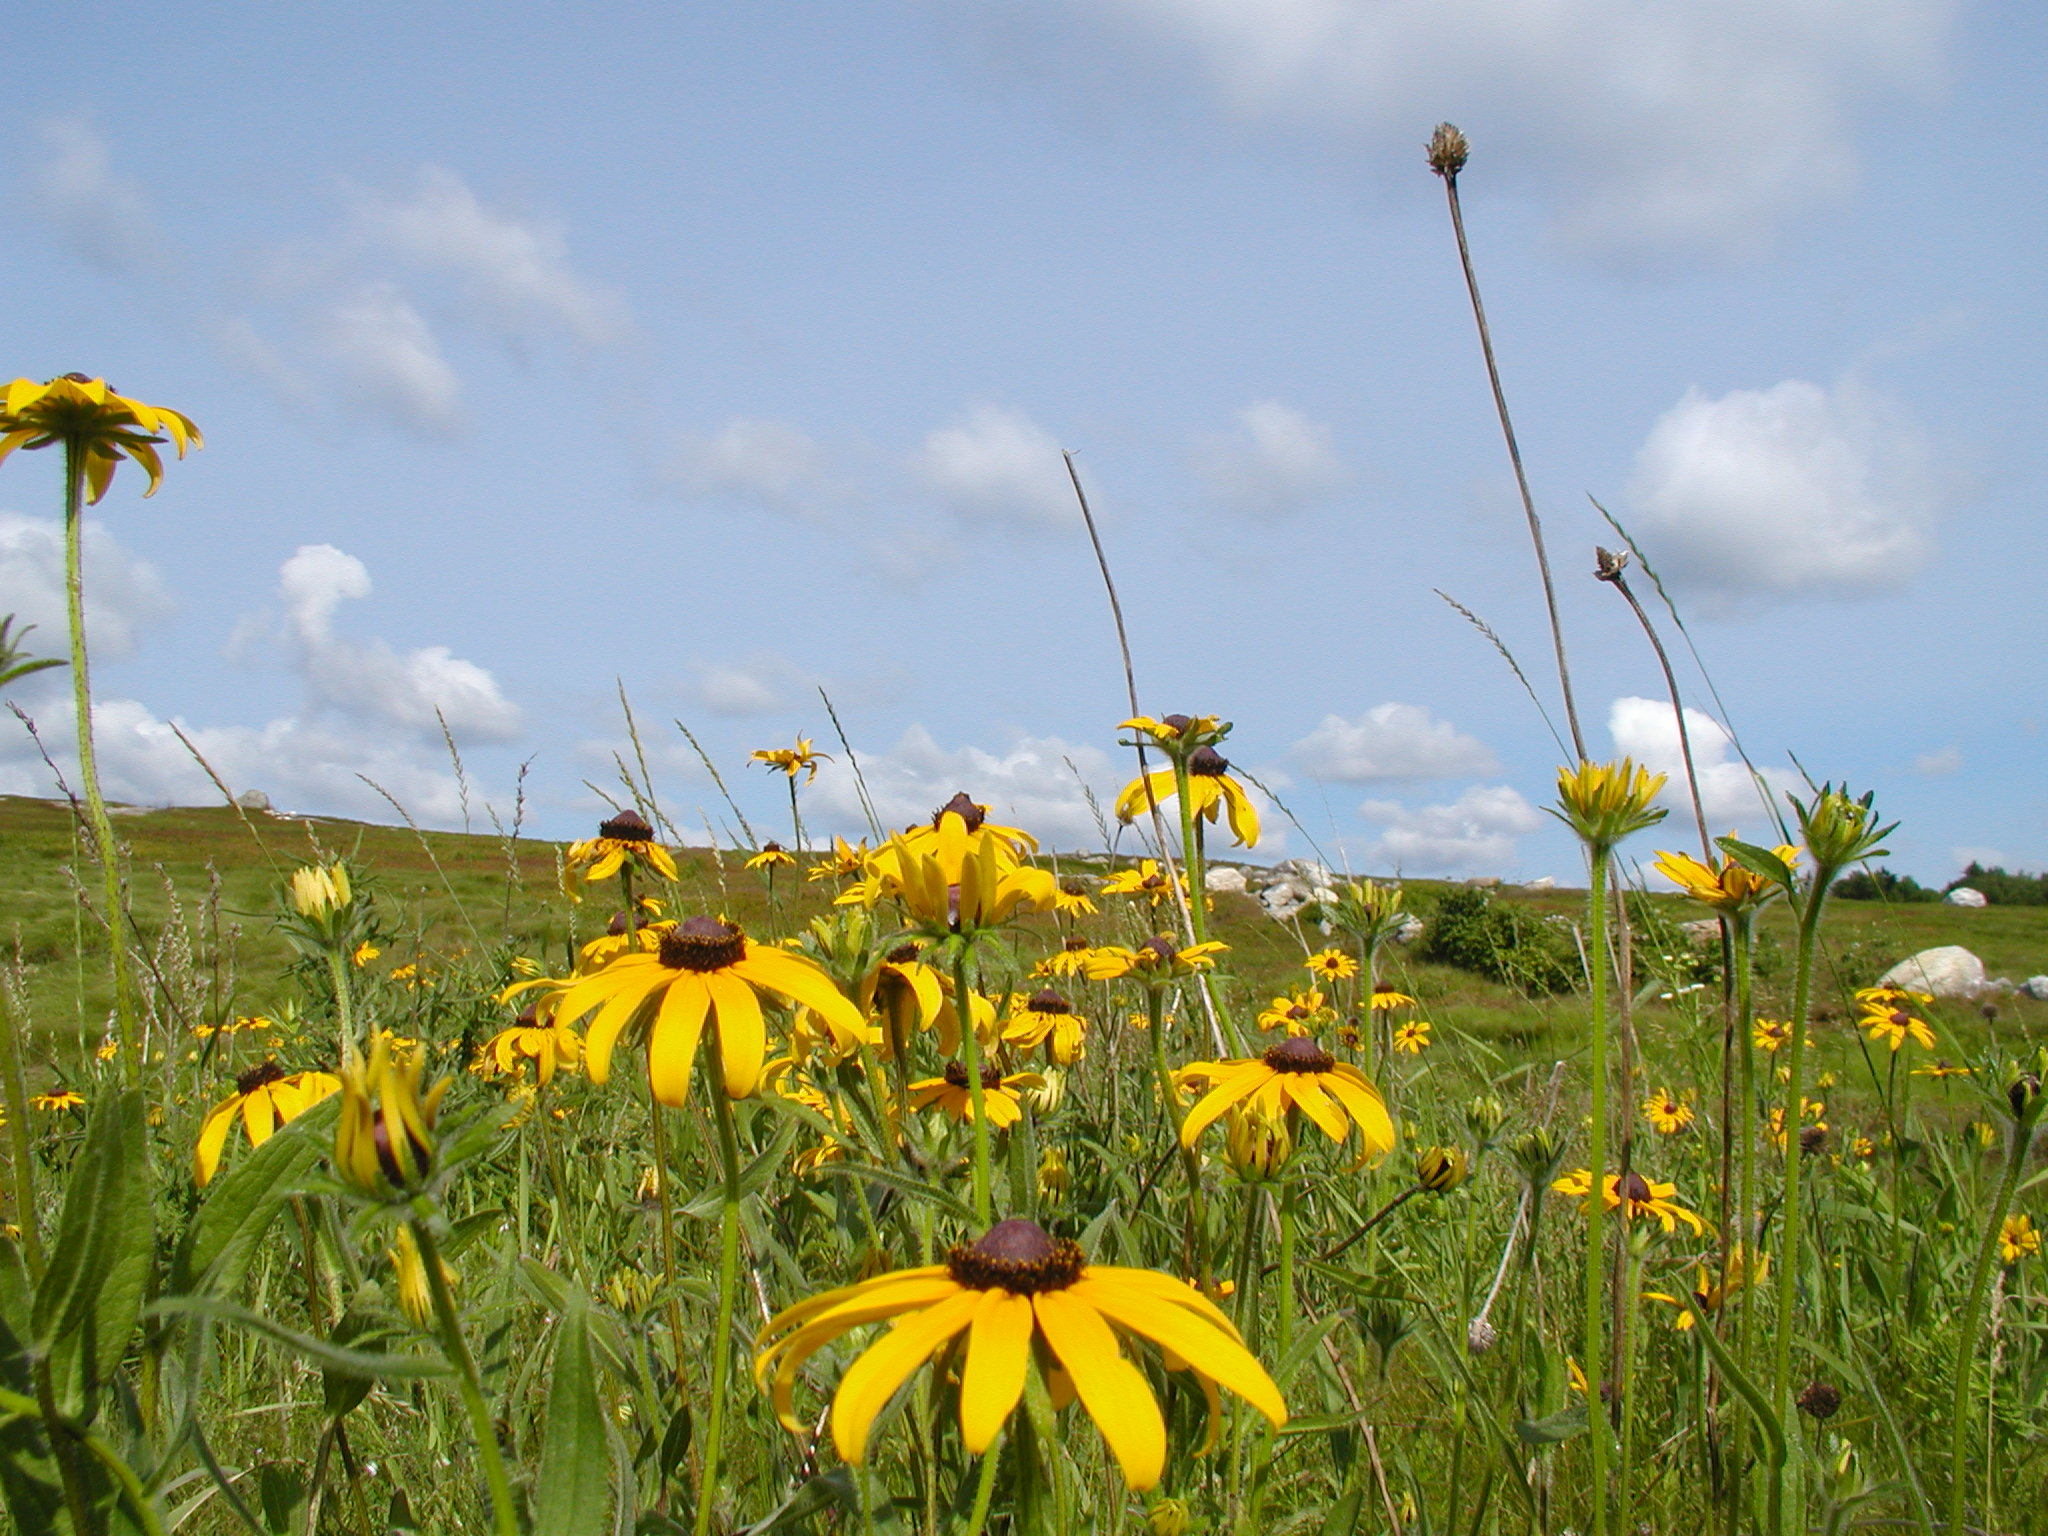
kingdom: Plantae
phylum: Tracheophyta
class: Magnoliopsida
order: Asterales
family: Asteraceae
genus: Rudbeckia
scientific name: Rudbeckia hirta
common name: Black-eyed-susan
